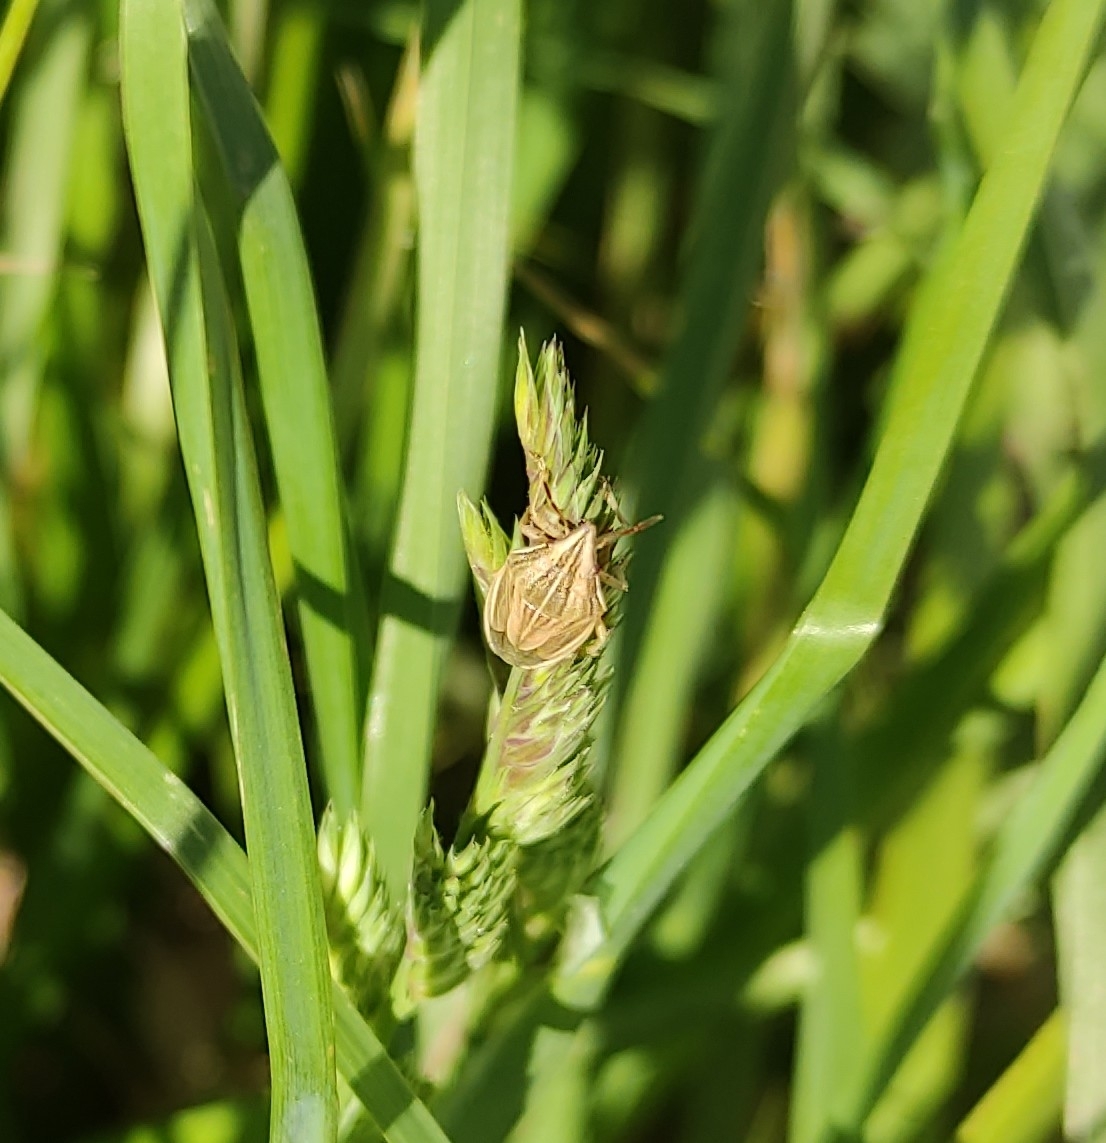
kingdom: Animalia
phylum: Arthropoda
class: Insecta
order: Hemiptera
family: Pentatomidae
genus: Aelia
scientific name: Aelia acuminata
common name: Bishop's mitre
